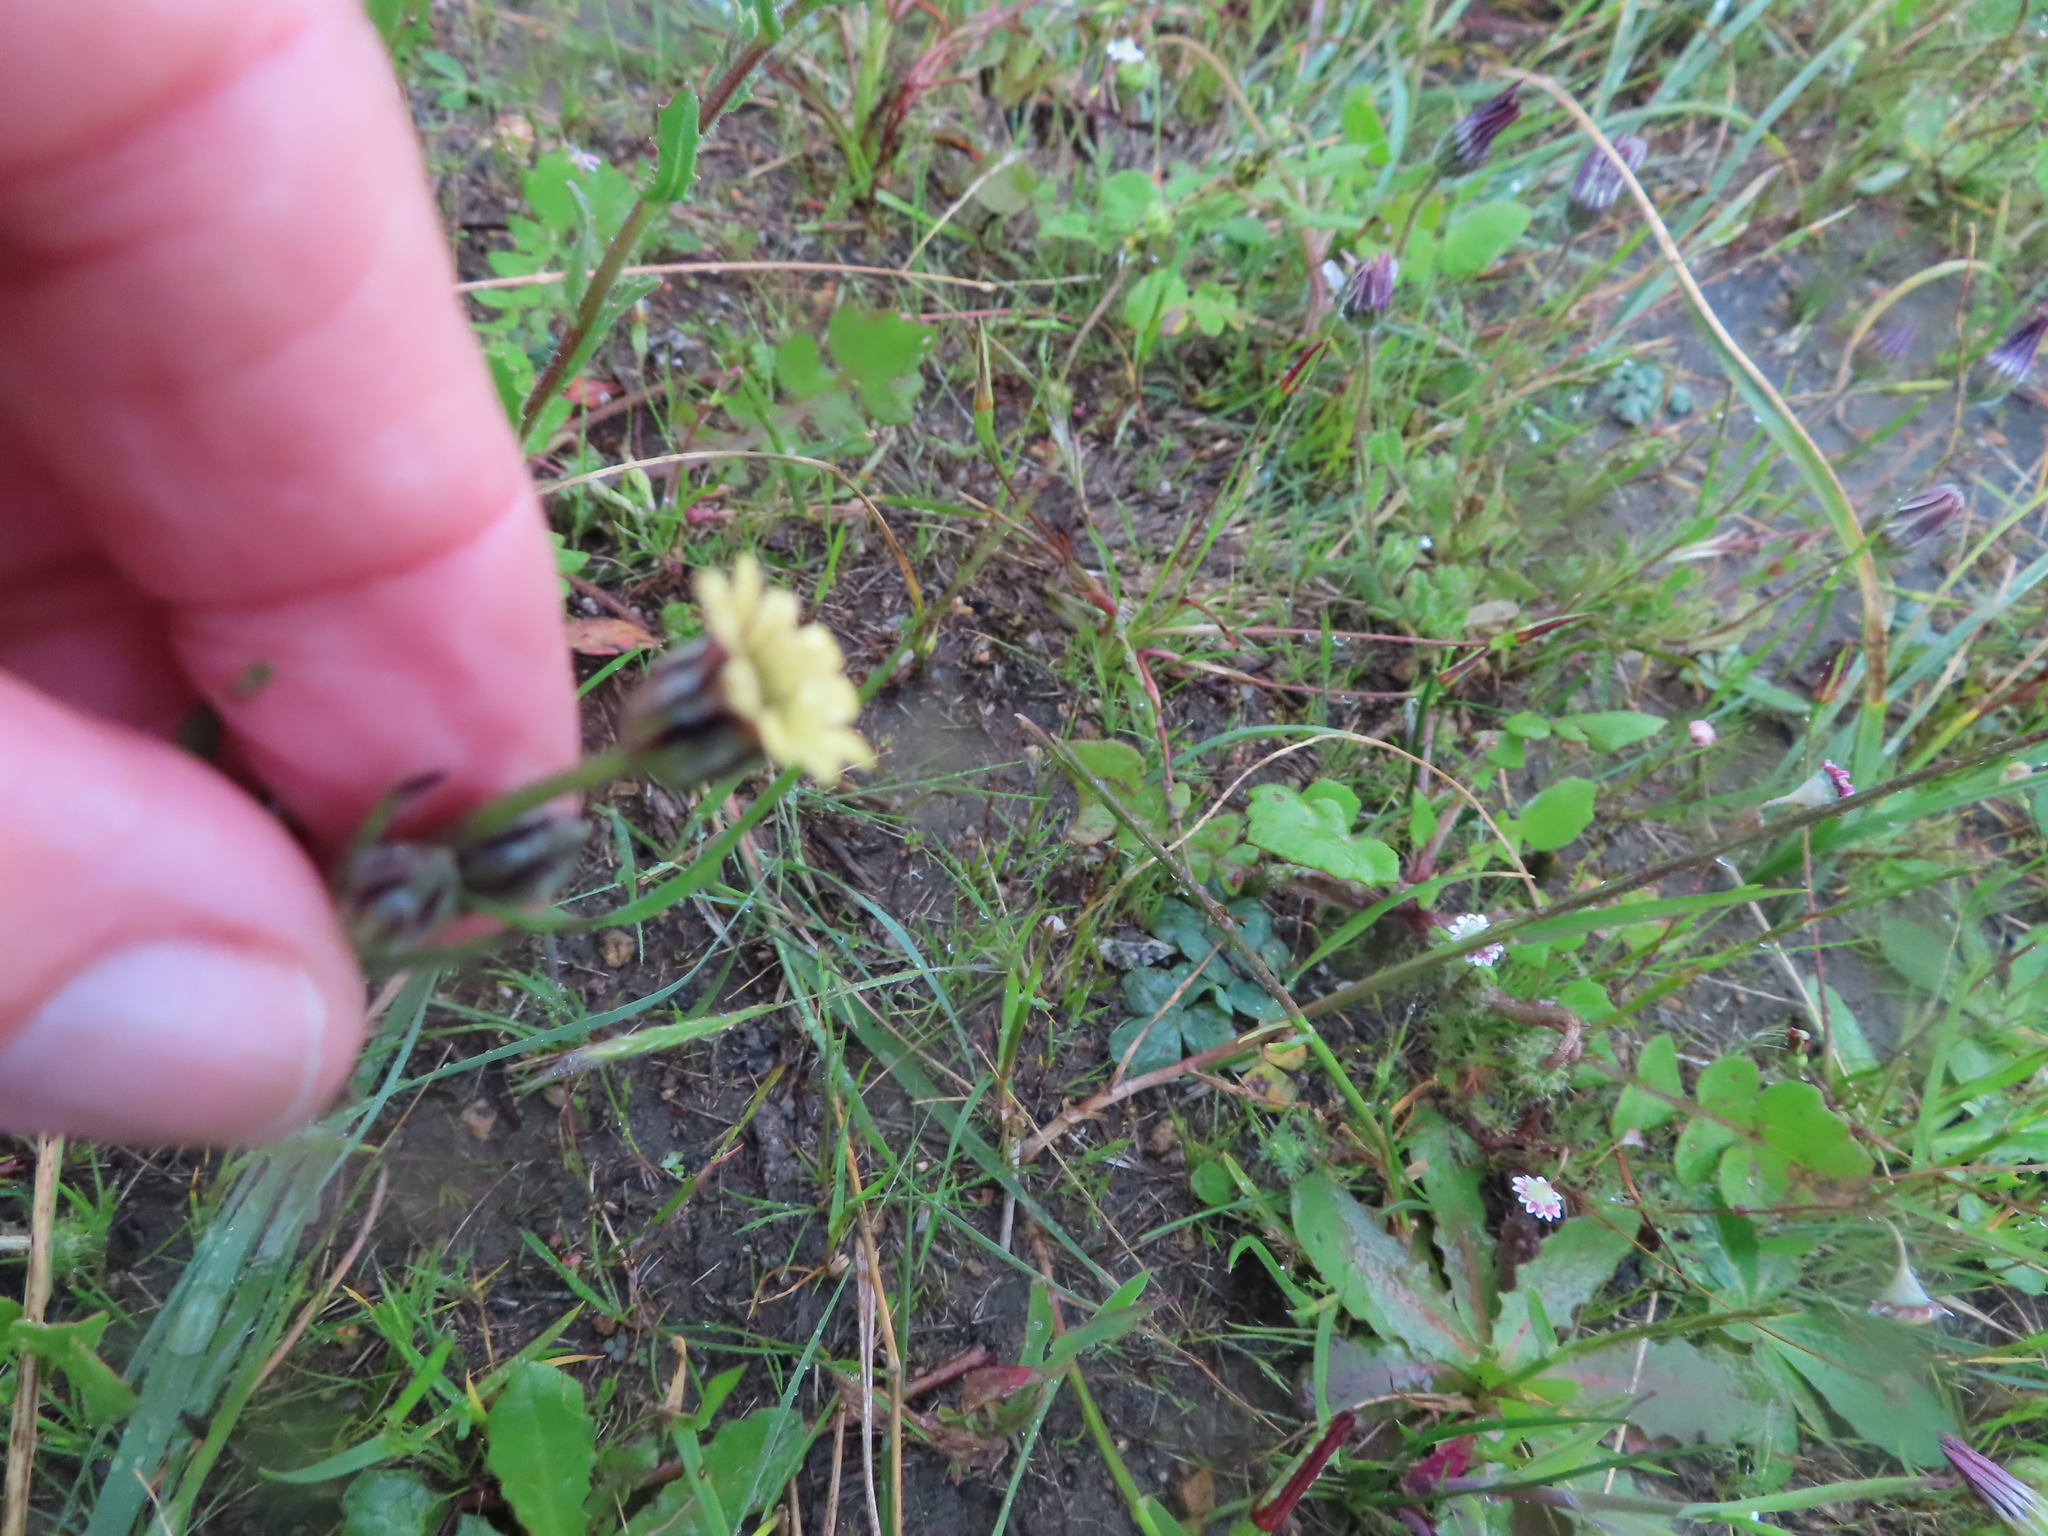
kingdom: Plantae
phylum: Tracheophyta
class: Magnoliopsida
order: Asterales
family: Asteraceae
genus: Osteospermum
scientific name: Osteospermum monstrosum
